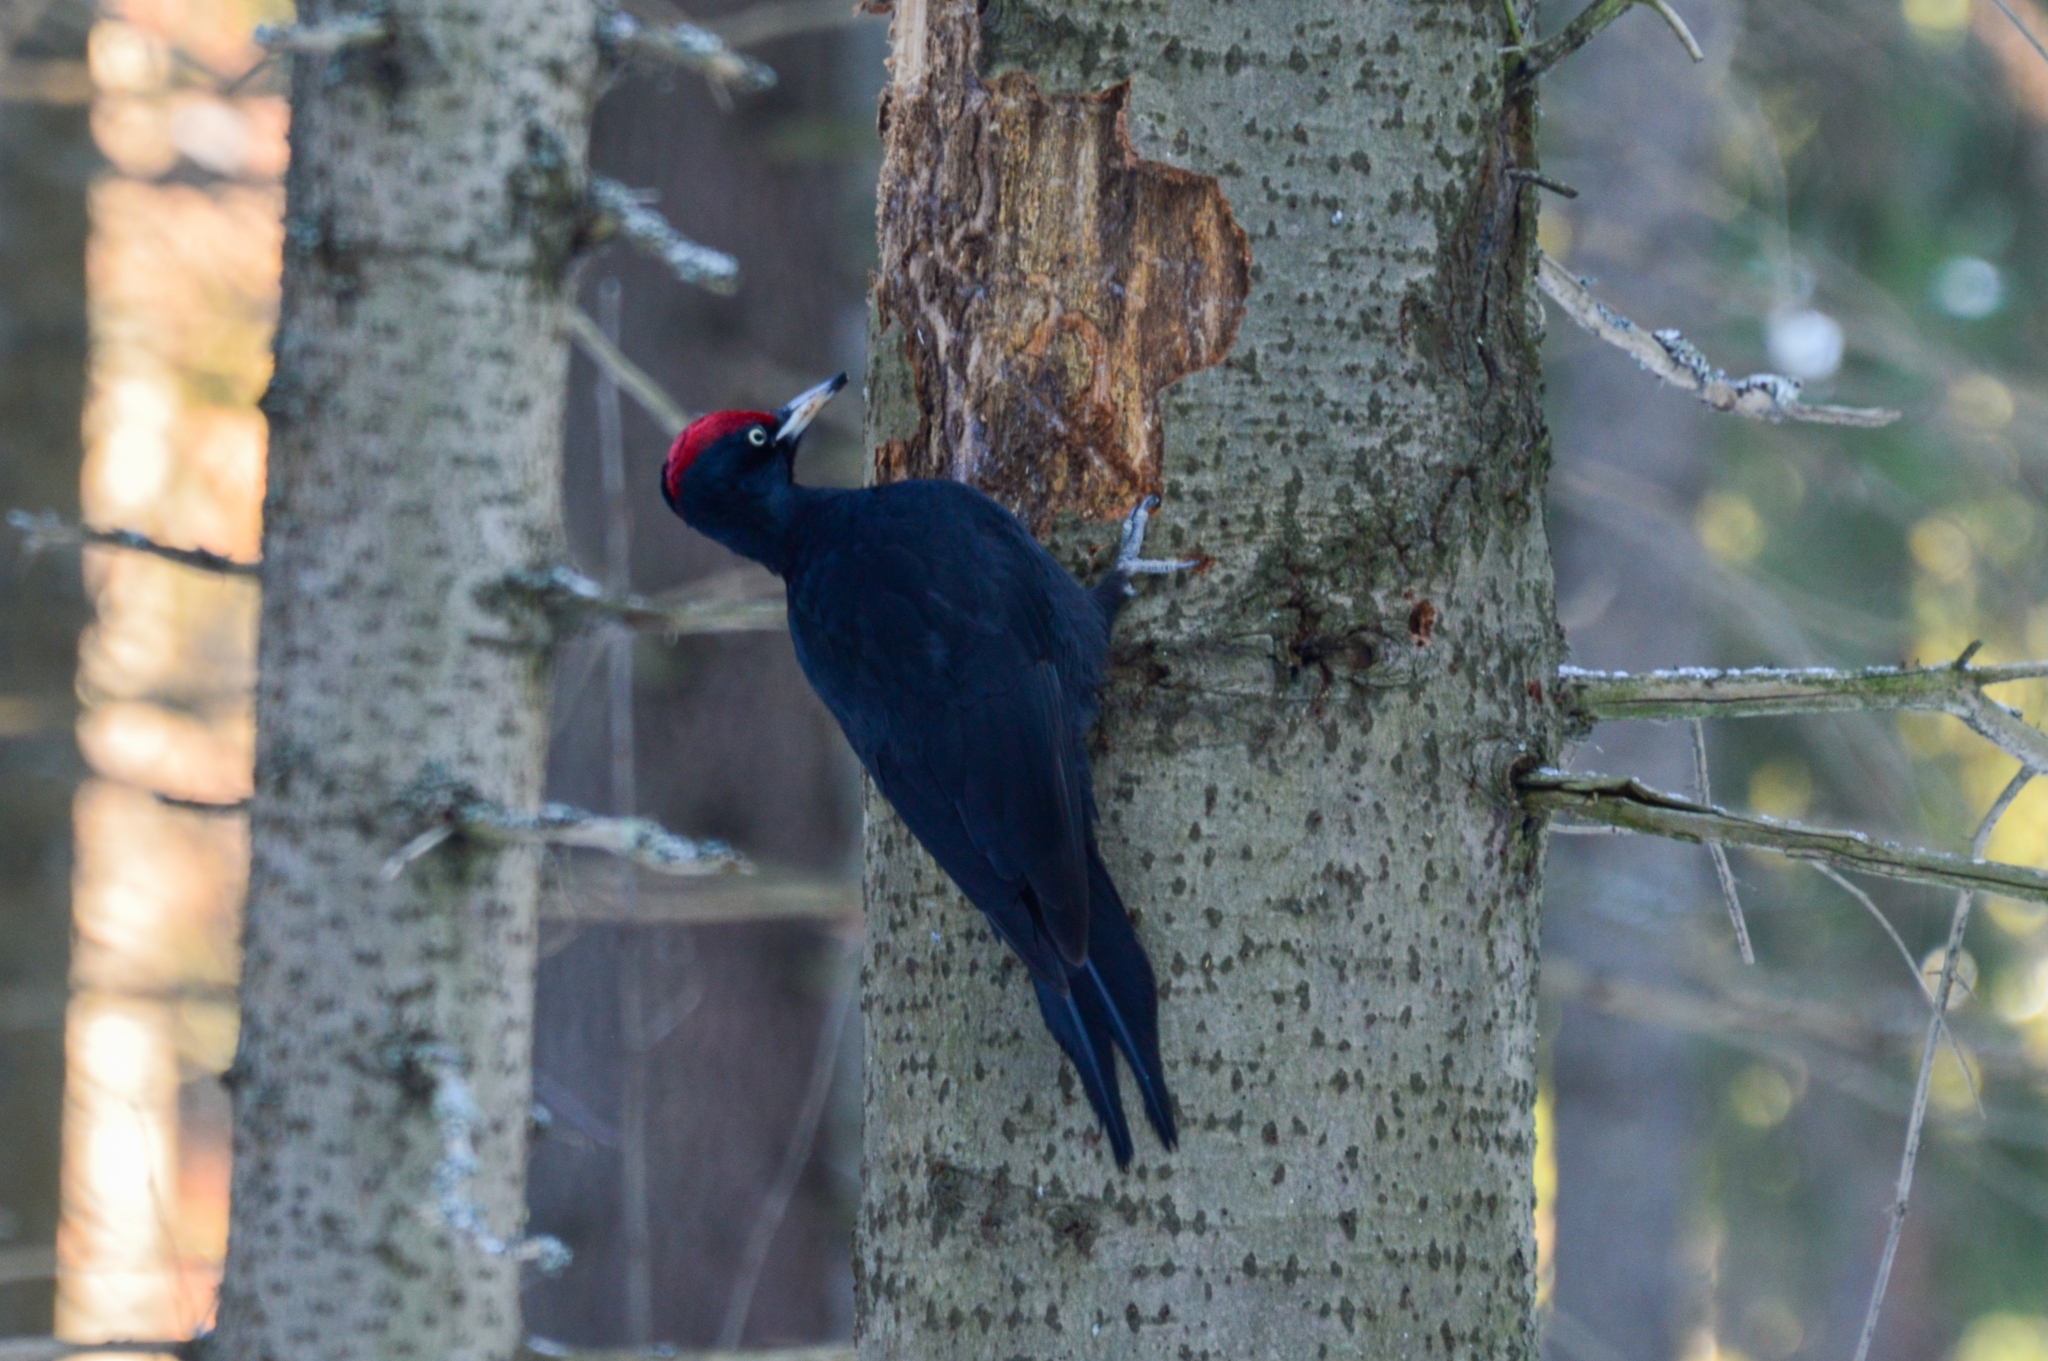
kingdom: Animalia
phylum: Chordata
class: Aves
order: Piciformes
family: Picidae
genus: Dryocopus
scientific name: Dryocopus martius
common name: Black woodpecker
